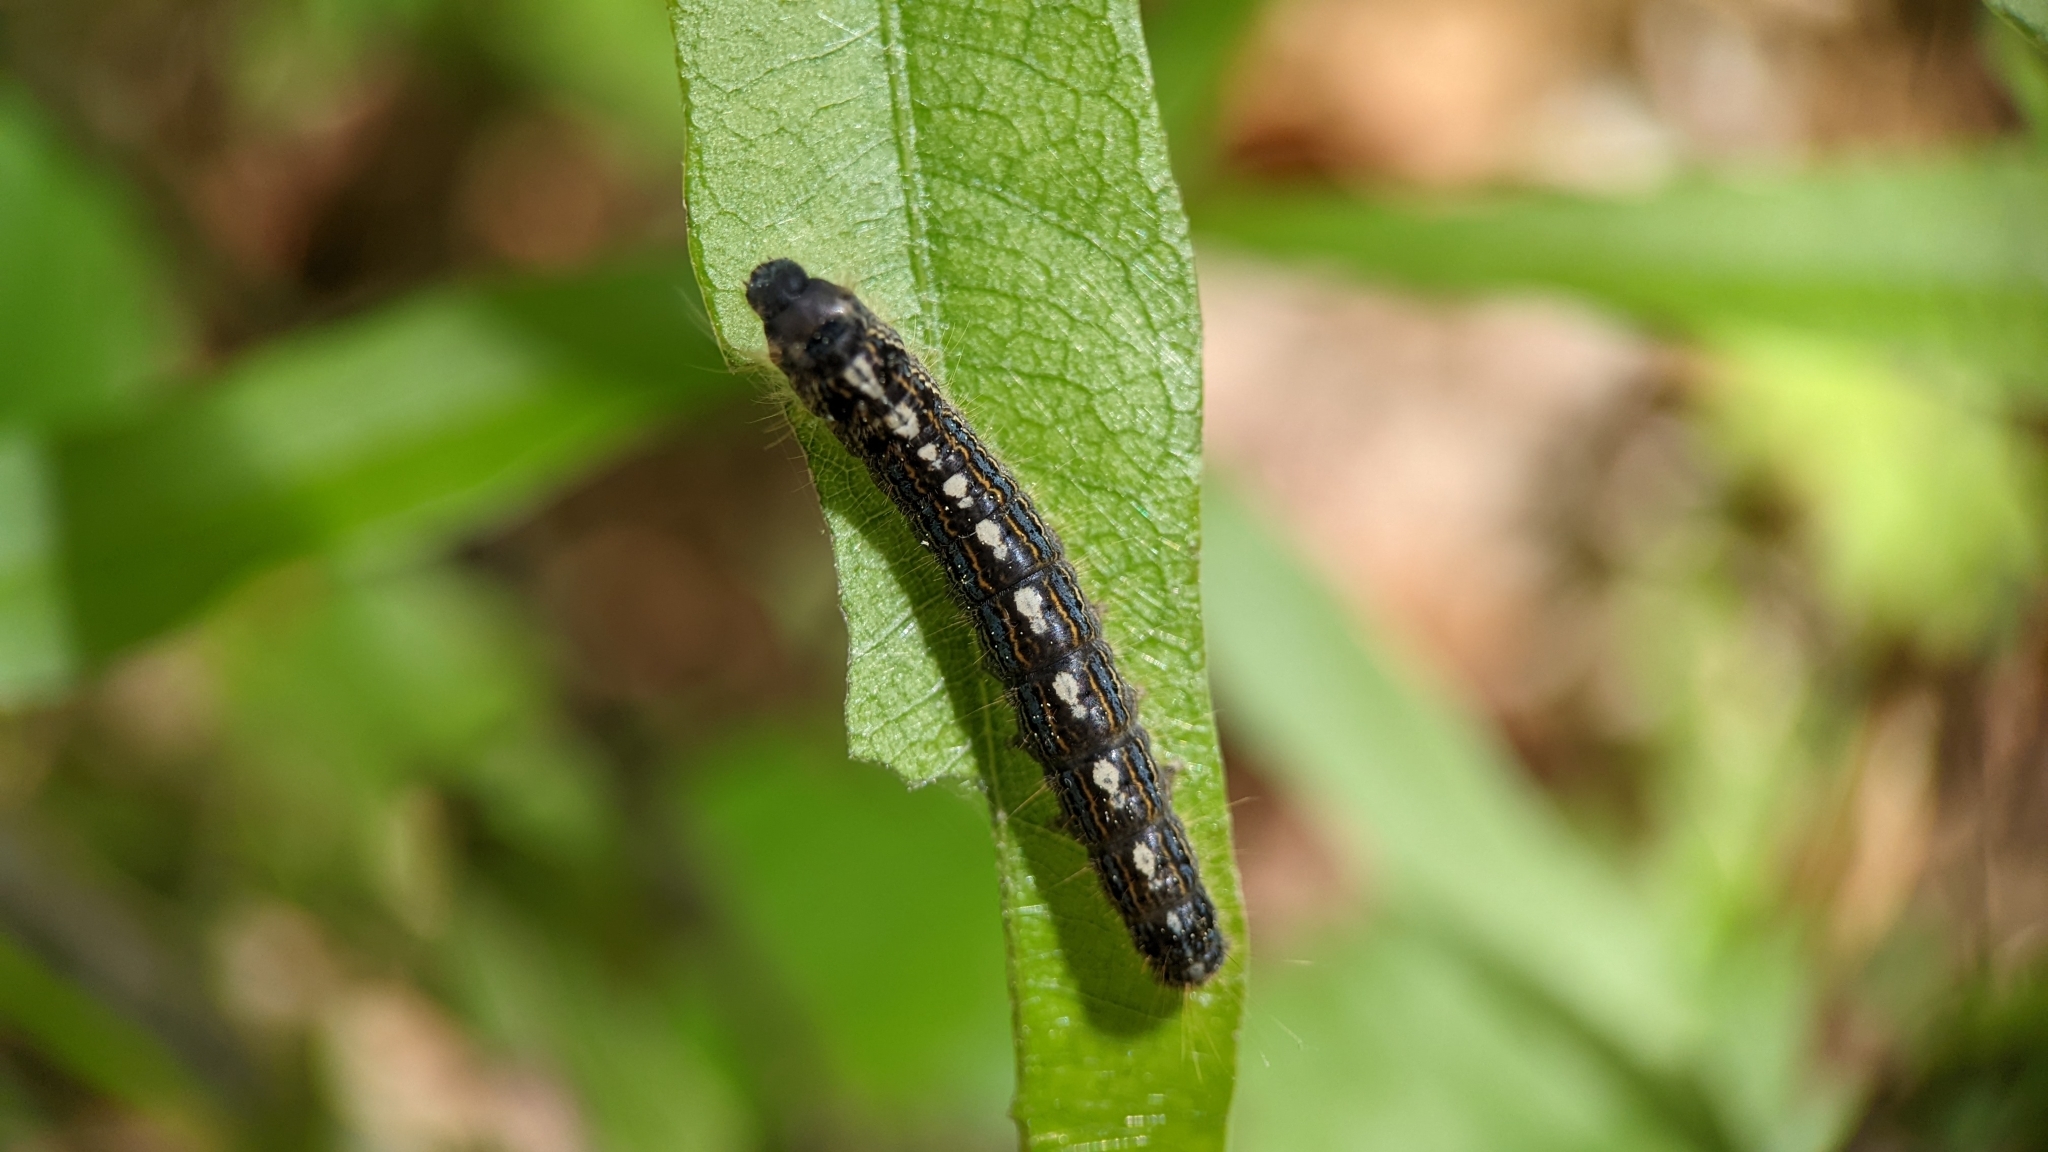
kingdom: Animalia
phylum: Arthropoda
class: Insecta
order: Lepidoptera
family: Lasiocampidae
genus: Malacosoma
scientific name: Malacosoma disstria
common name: Forest tent caterpillar
